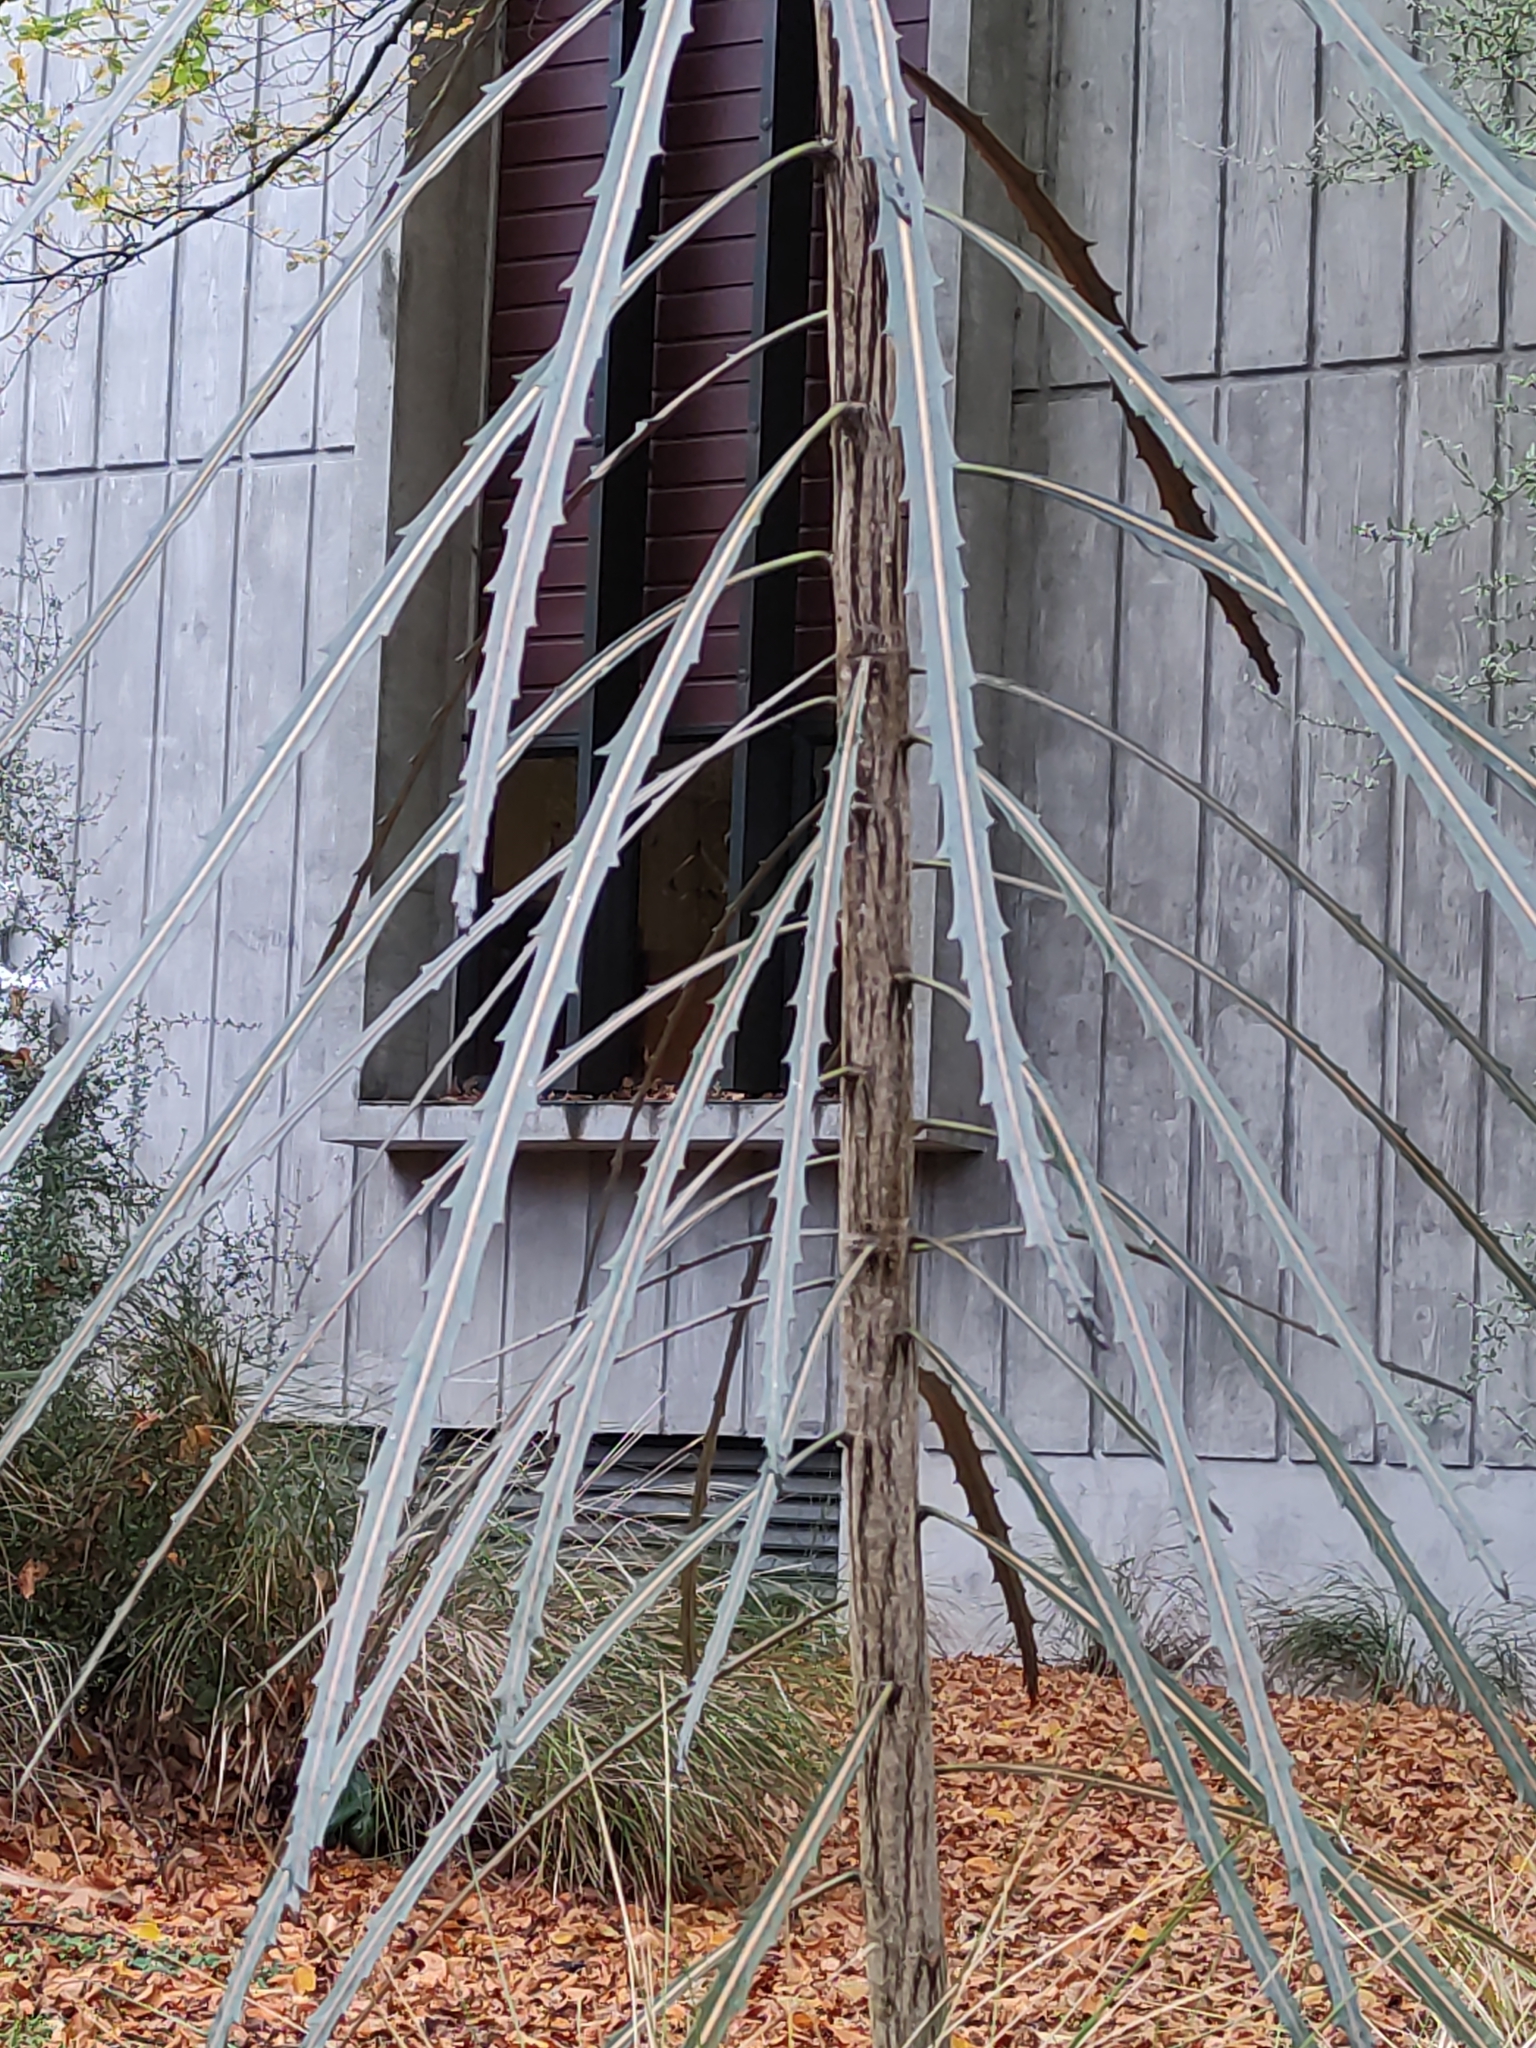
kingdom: Plantae
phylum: Tracheophyta
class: Magnoliopsida
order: Apiales
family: Araliaceae
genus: Pseudopanax
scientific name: Pseudopanax crassifolius
